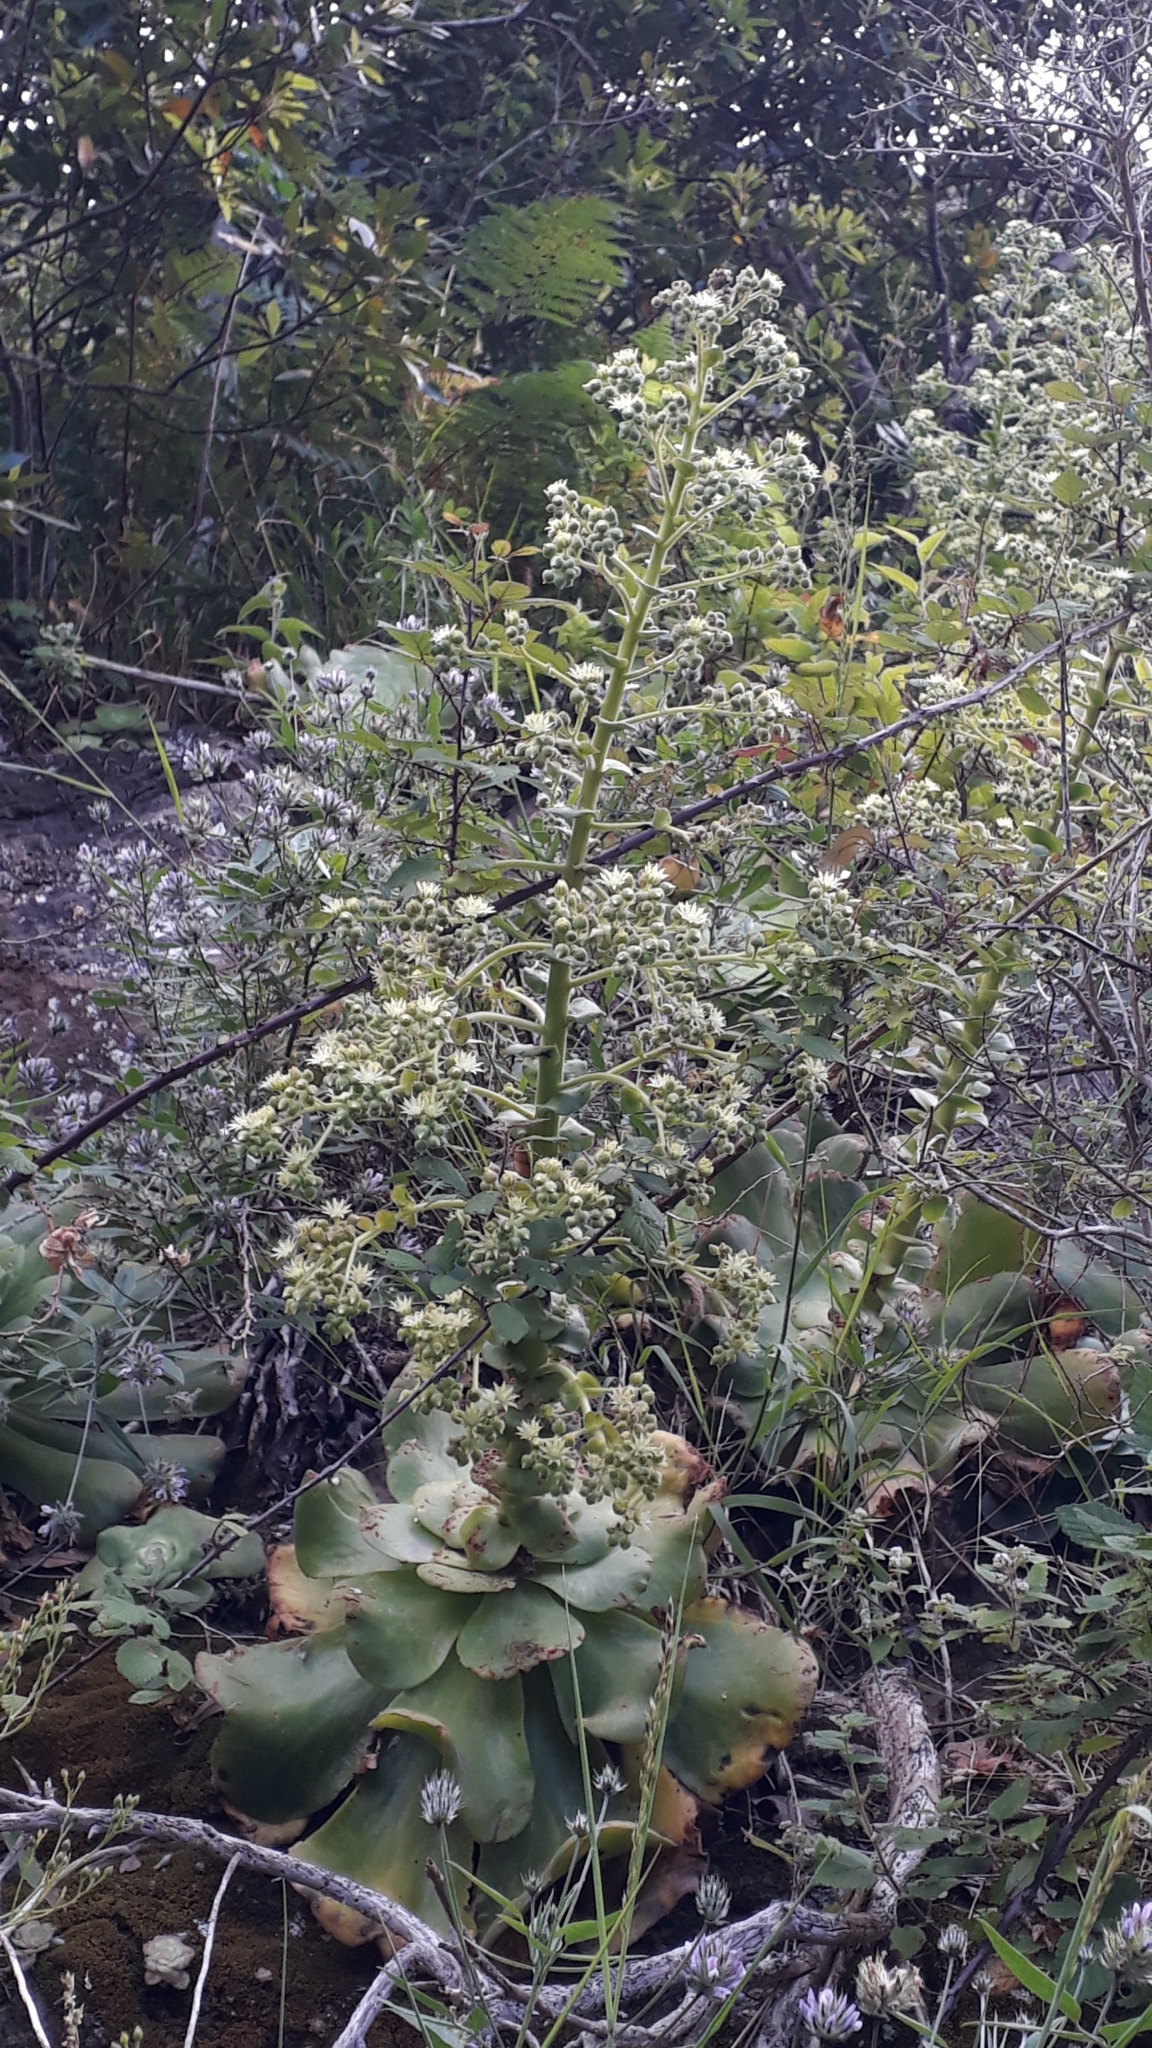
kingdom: Plantae
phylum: Tracheophyta
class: Magnoliopsida
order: Saxifragales
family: Crassulaceae
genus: Aeonium
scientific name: Aeonium canariense
